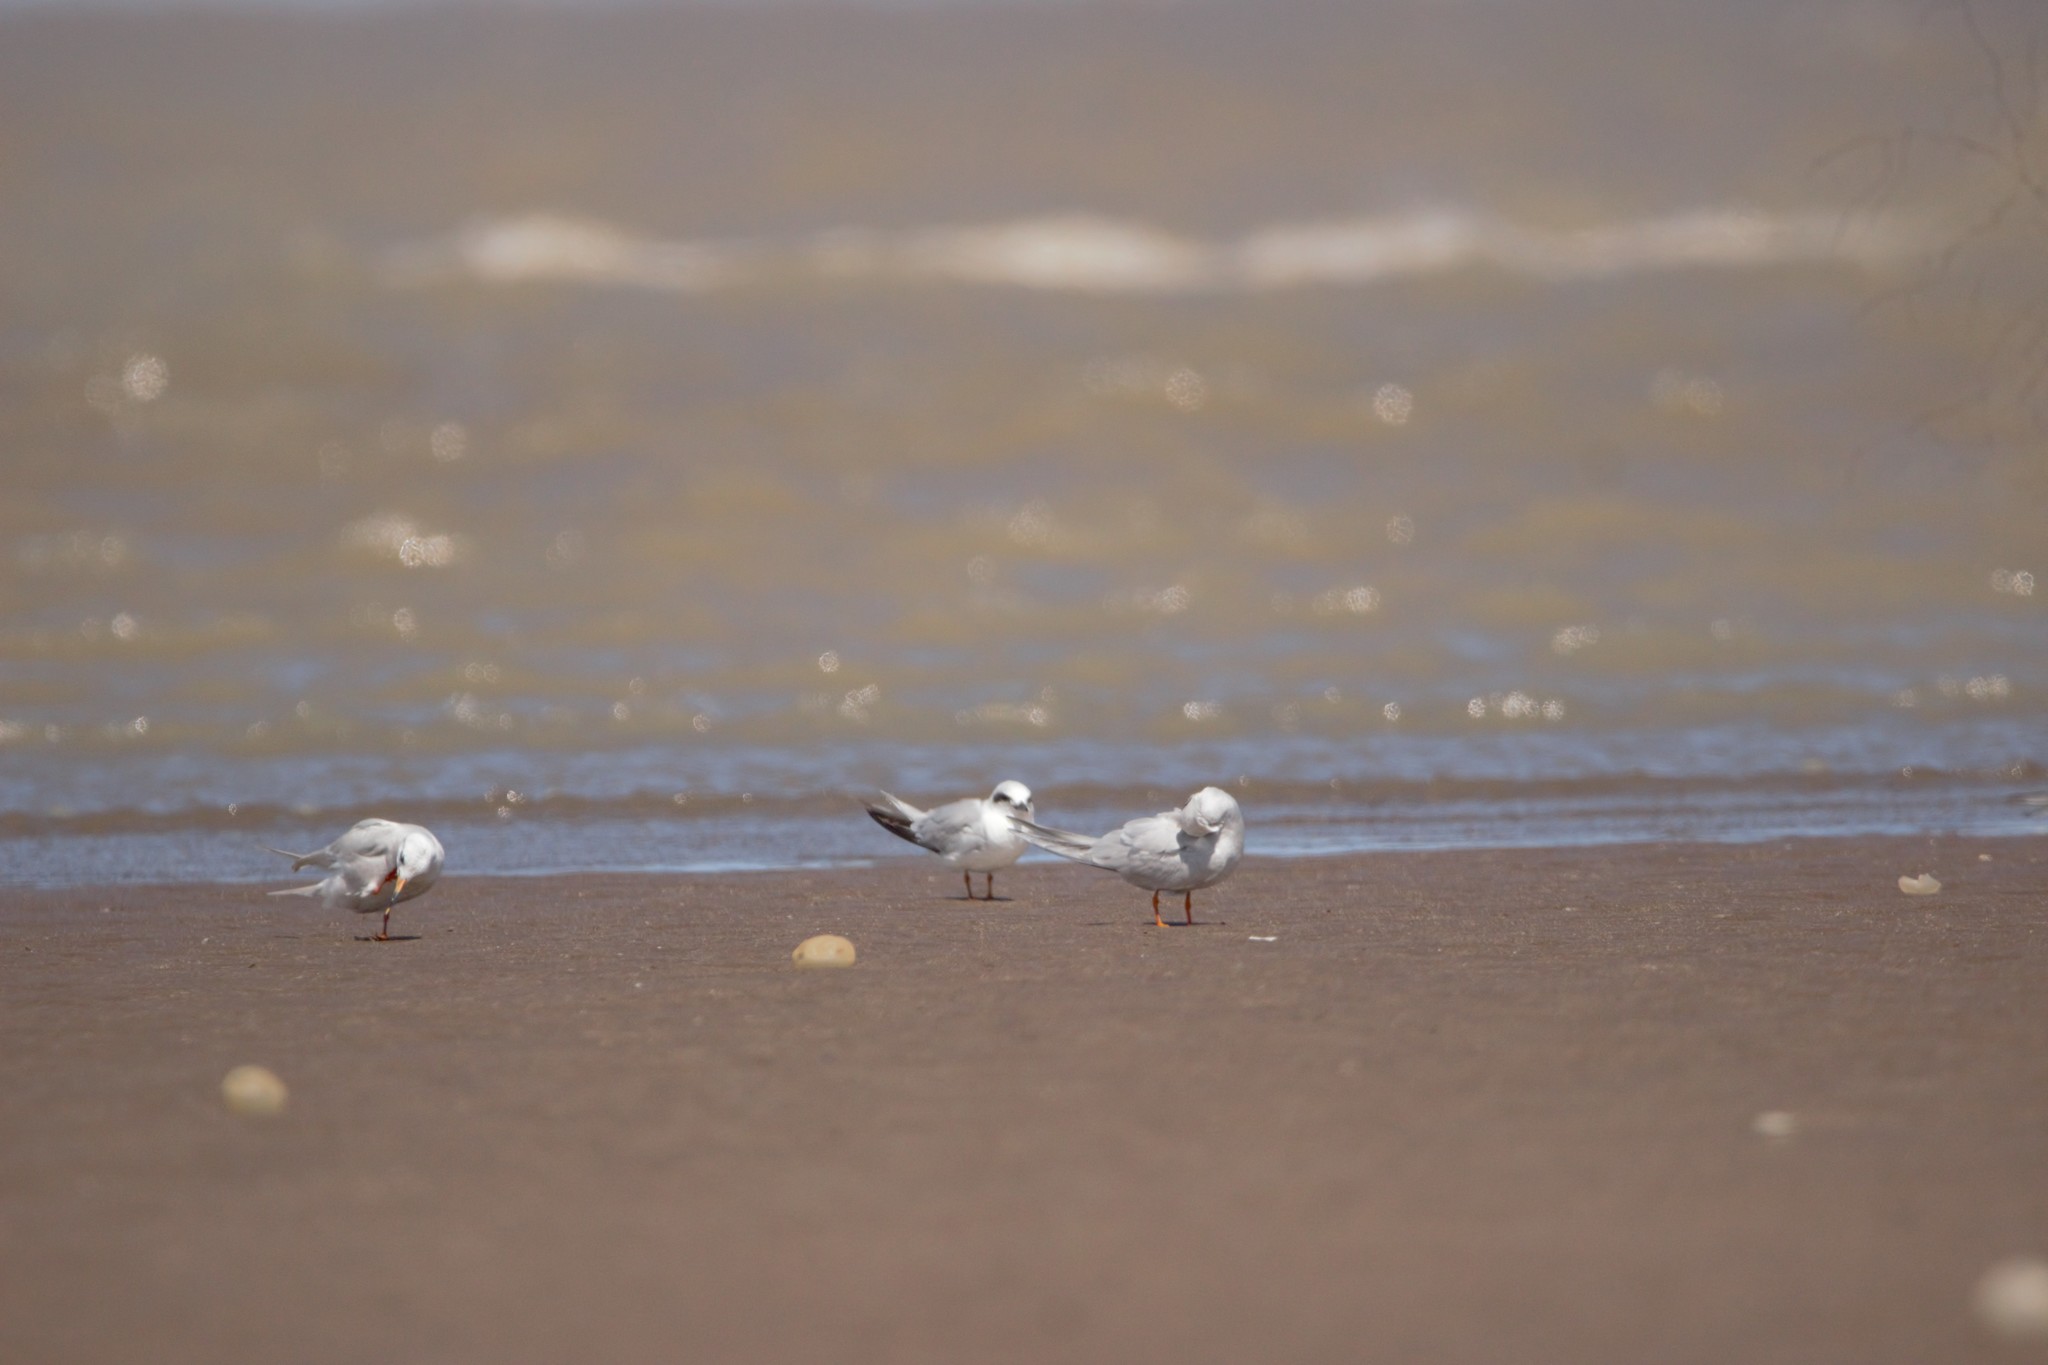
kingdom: Animalia
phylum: Chordata
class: Aves
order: Charadriiformes
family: Laridae
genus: Sterna
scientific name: Sterna trudeaui
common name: Snowy-crowned tern
